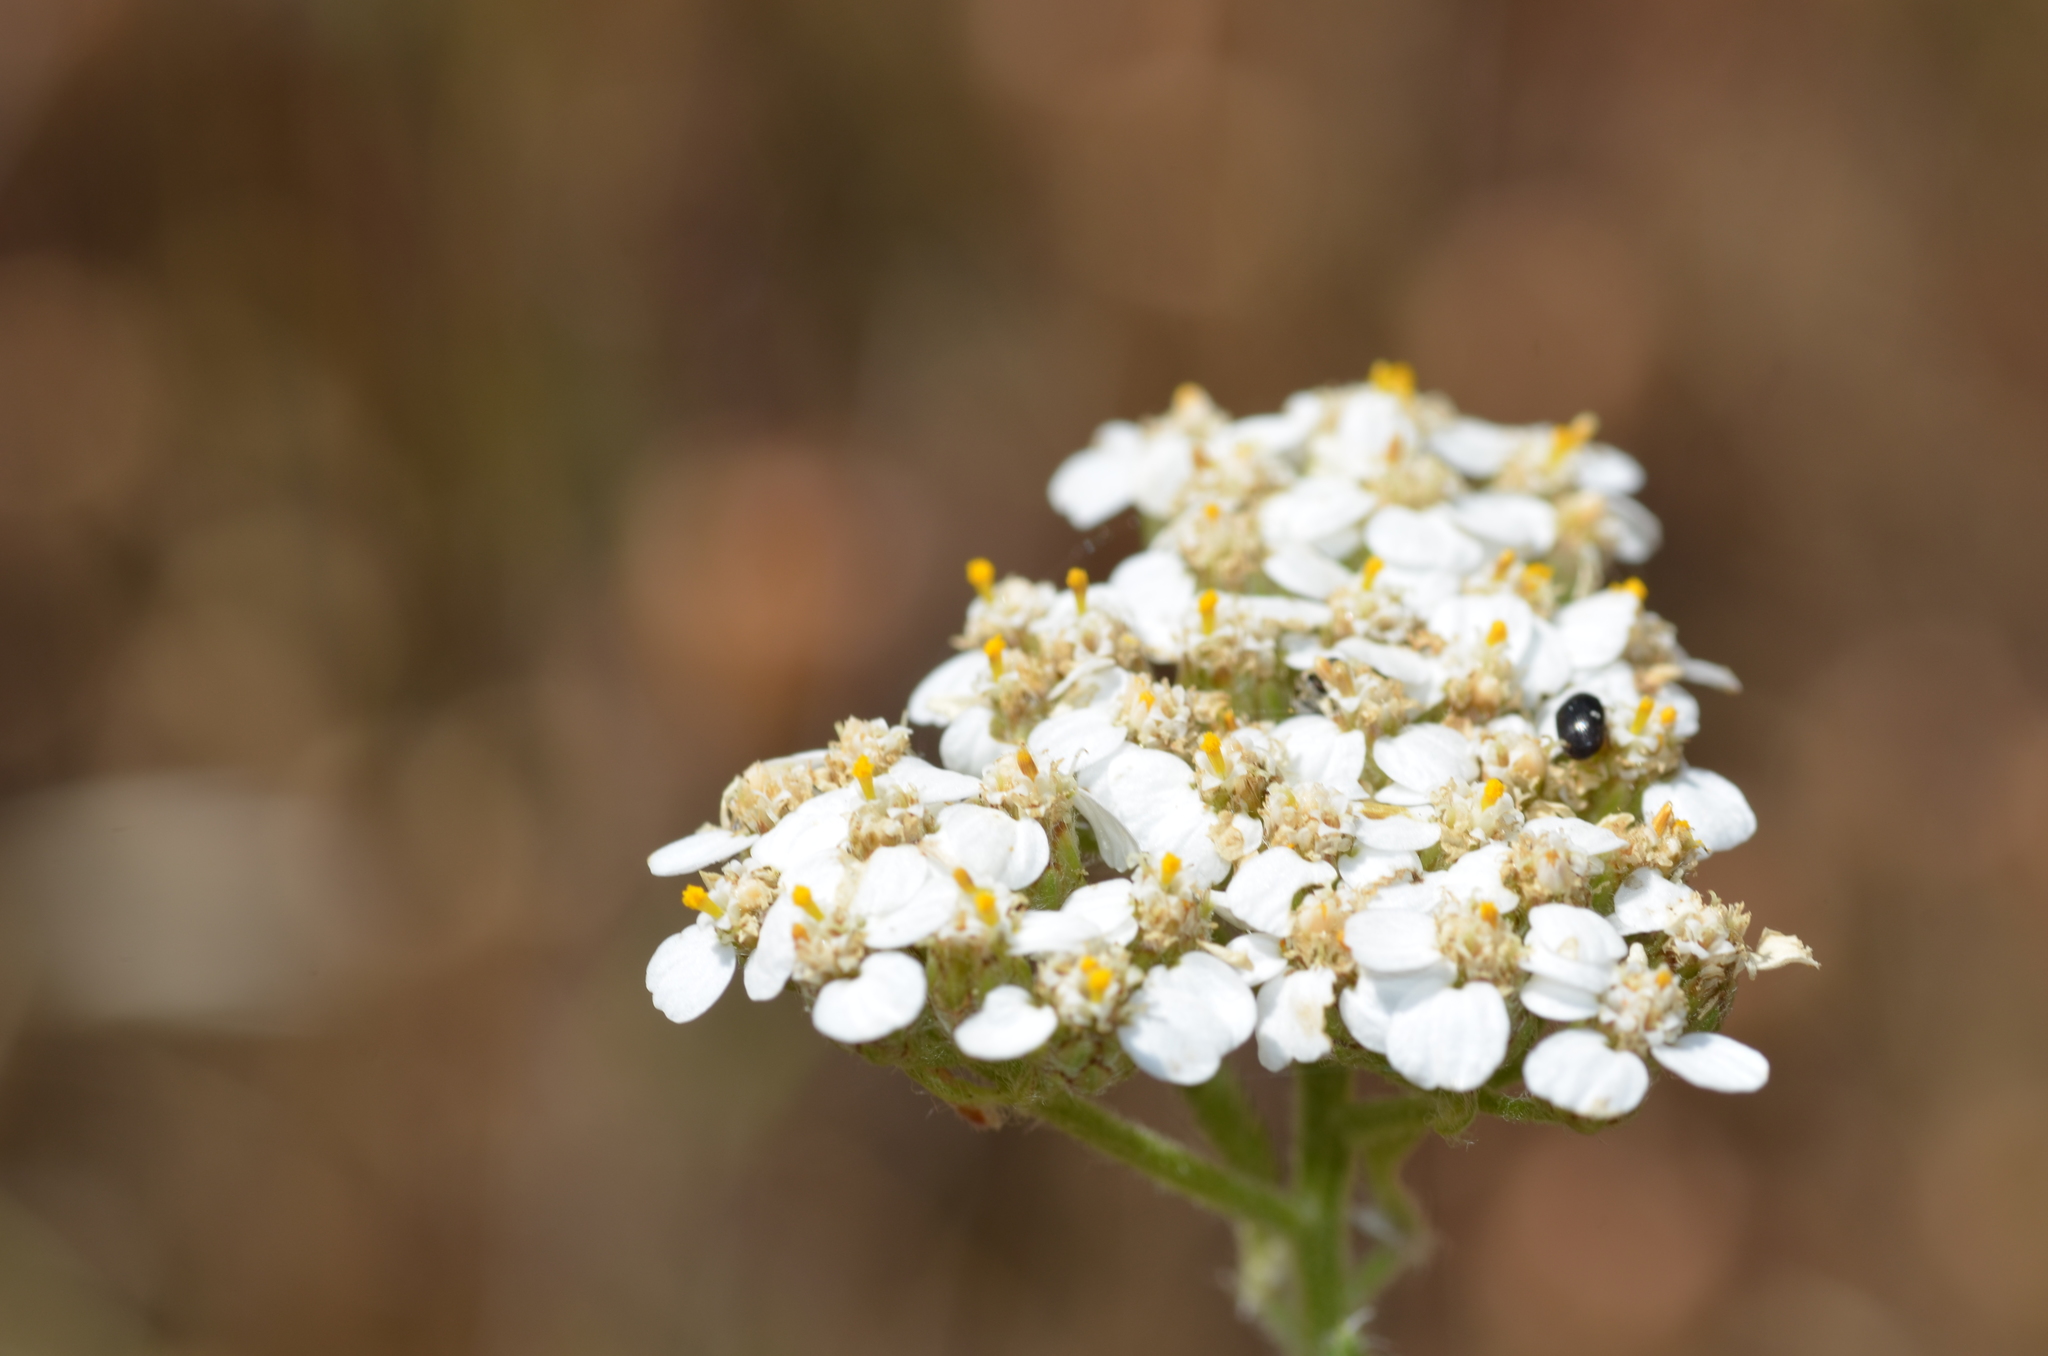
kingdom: Plantae
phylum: Tracheophyta
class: Magnoliopsida
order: Asterales
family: Asteraceae
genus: Achillea
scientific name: Achillea millefolium
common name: Yarrow
